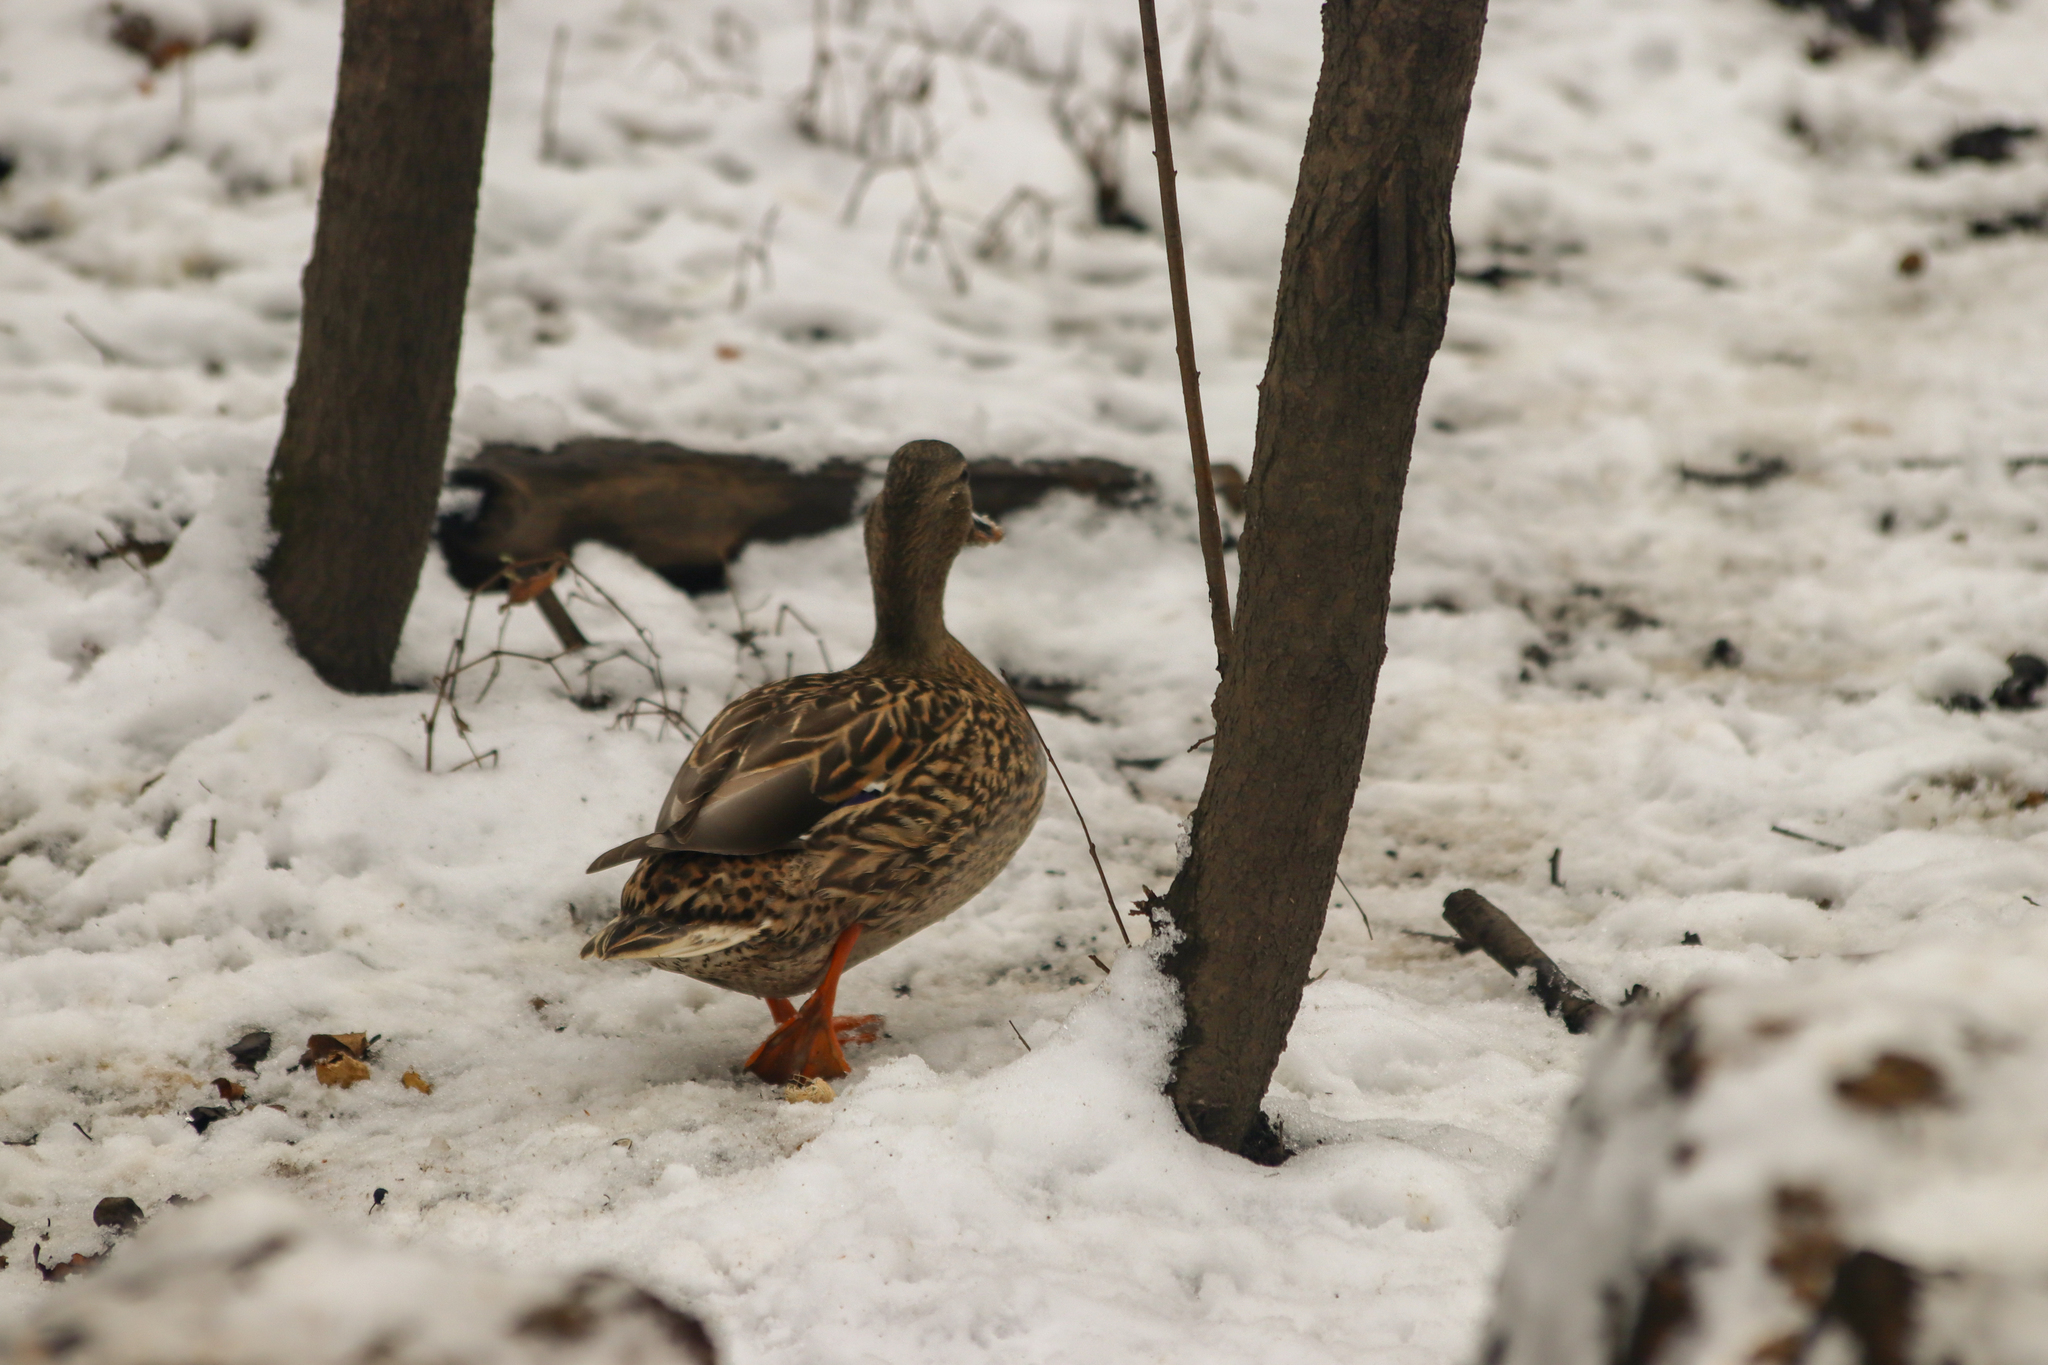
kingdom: Animalia
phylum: Chordata
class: Aves
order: Anseriformes
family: Anatidae
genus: Anas
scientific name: Anas platyrhynchos
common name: Mallard
